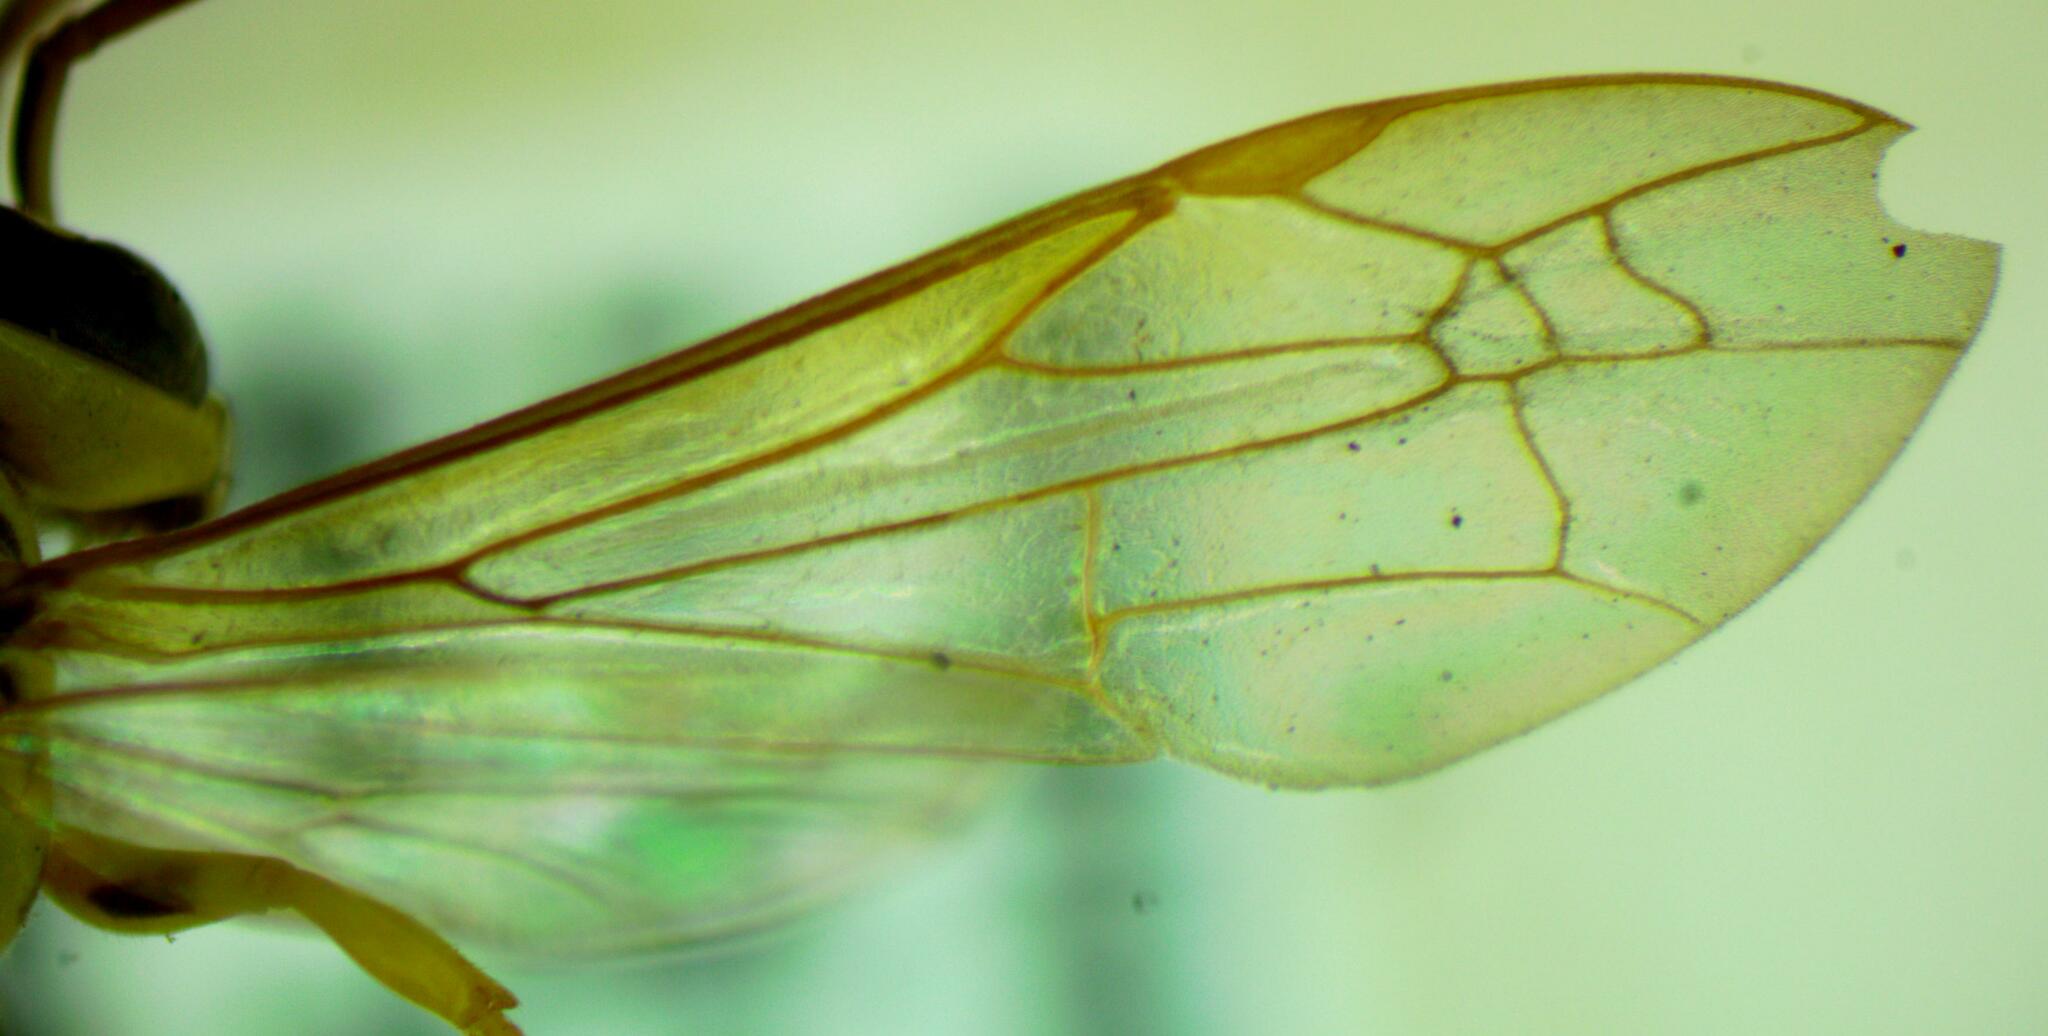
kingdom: Animalia
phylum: Arthropoda
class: Insecta
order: Hymenoptera
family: Eumenidae
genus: Polybia
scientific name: Polybia emaciata
